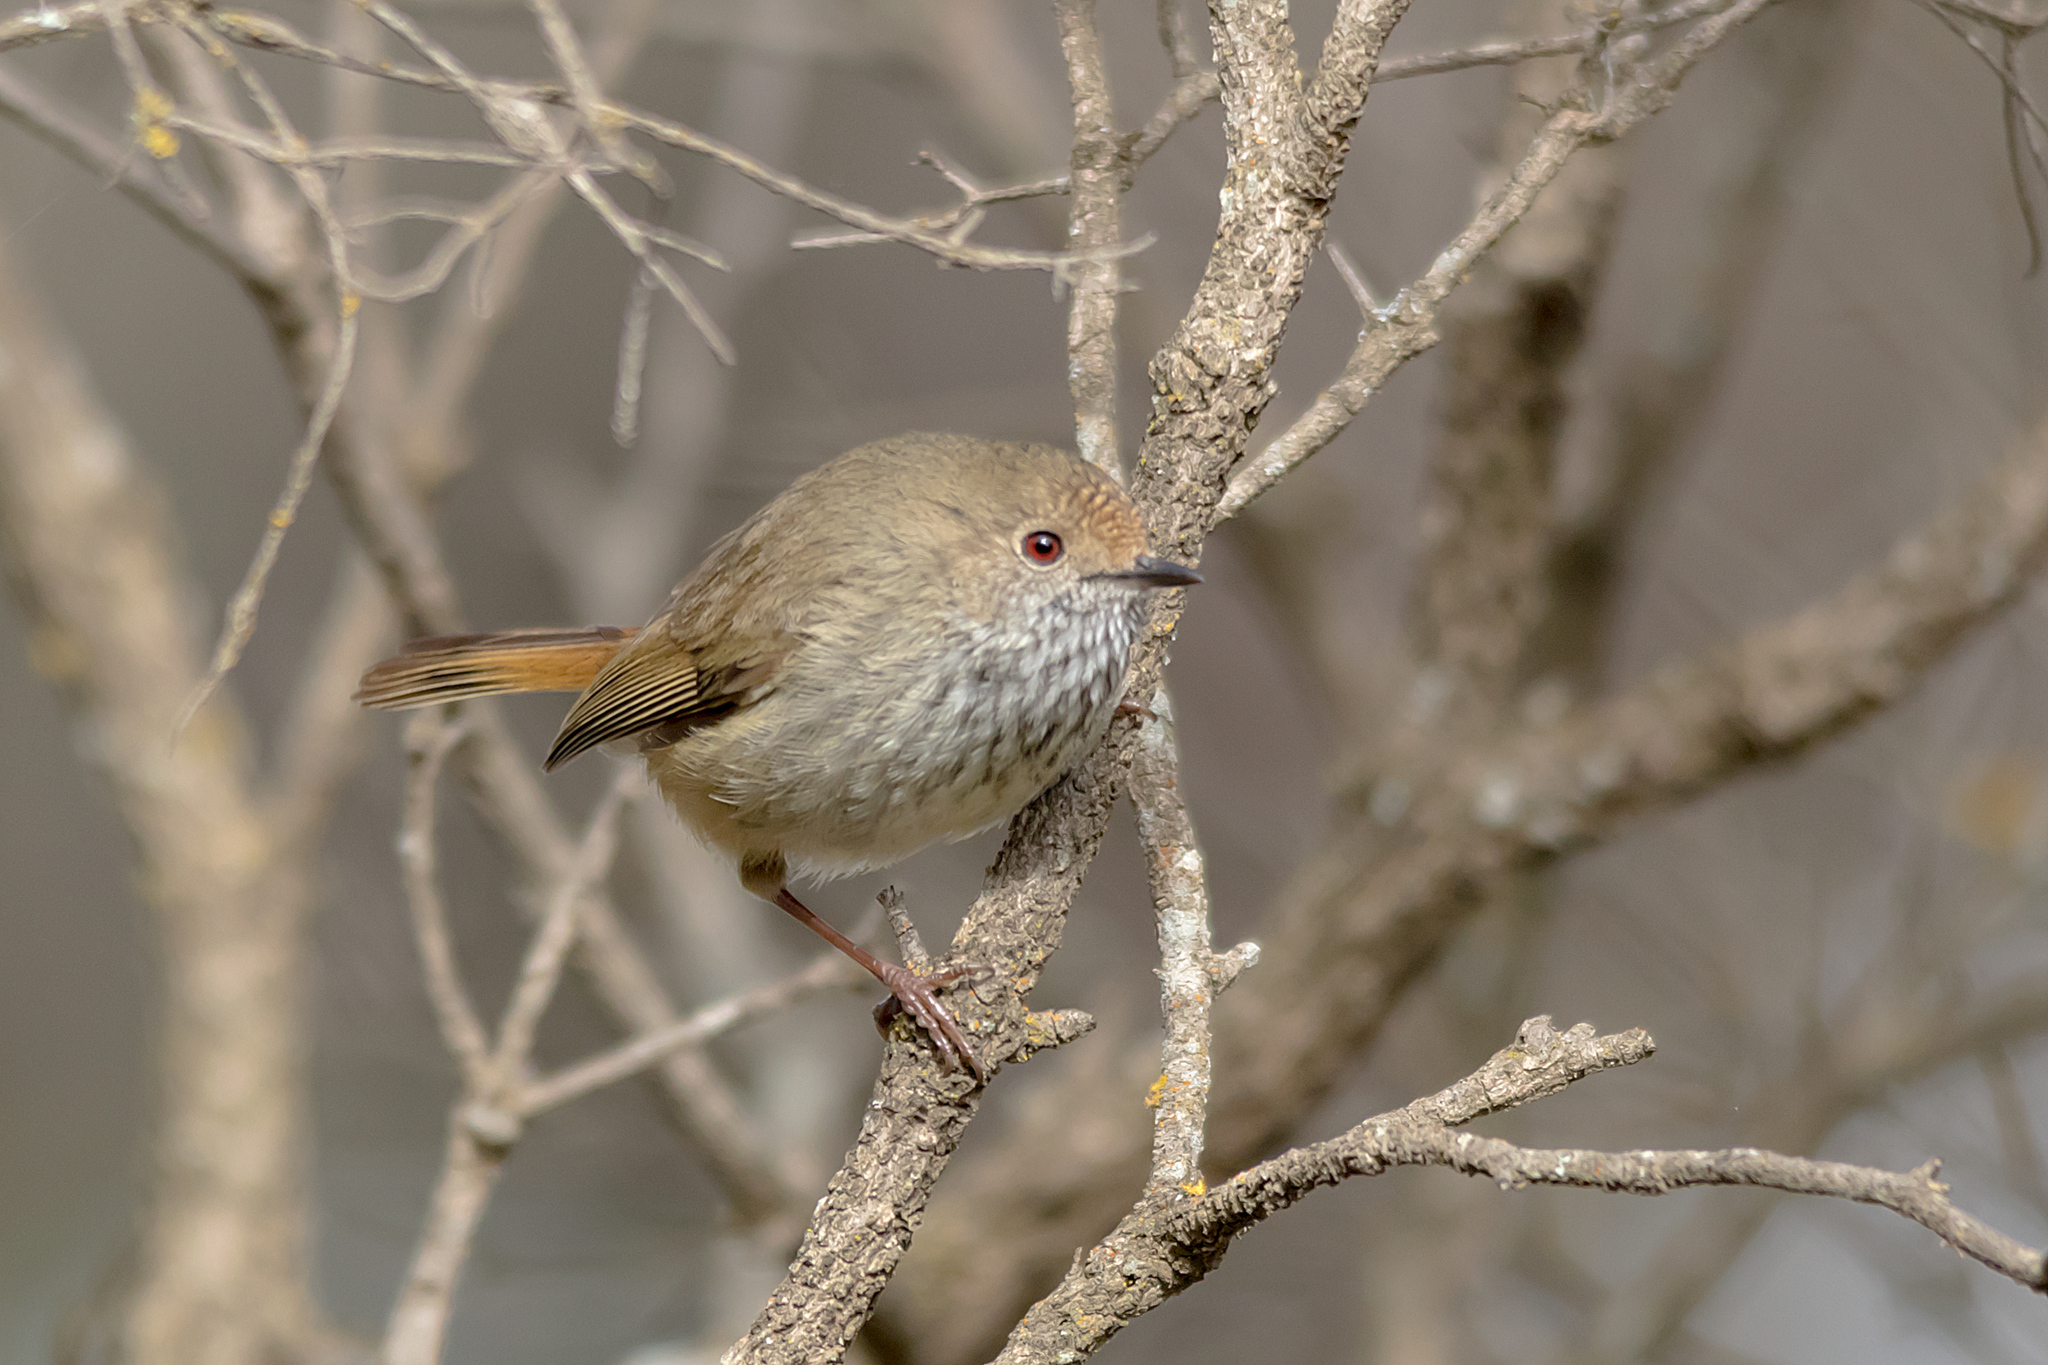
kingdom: Animalia
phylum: Chordata
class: Aves
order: Passeriformes
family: Acanthizidae
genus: Acanthiza
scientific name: Acanthiza pusilla
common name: Brown thornbill
